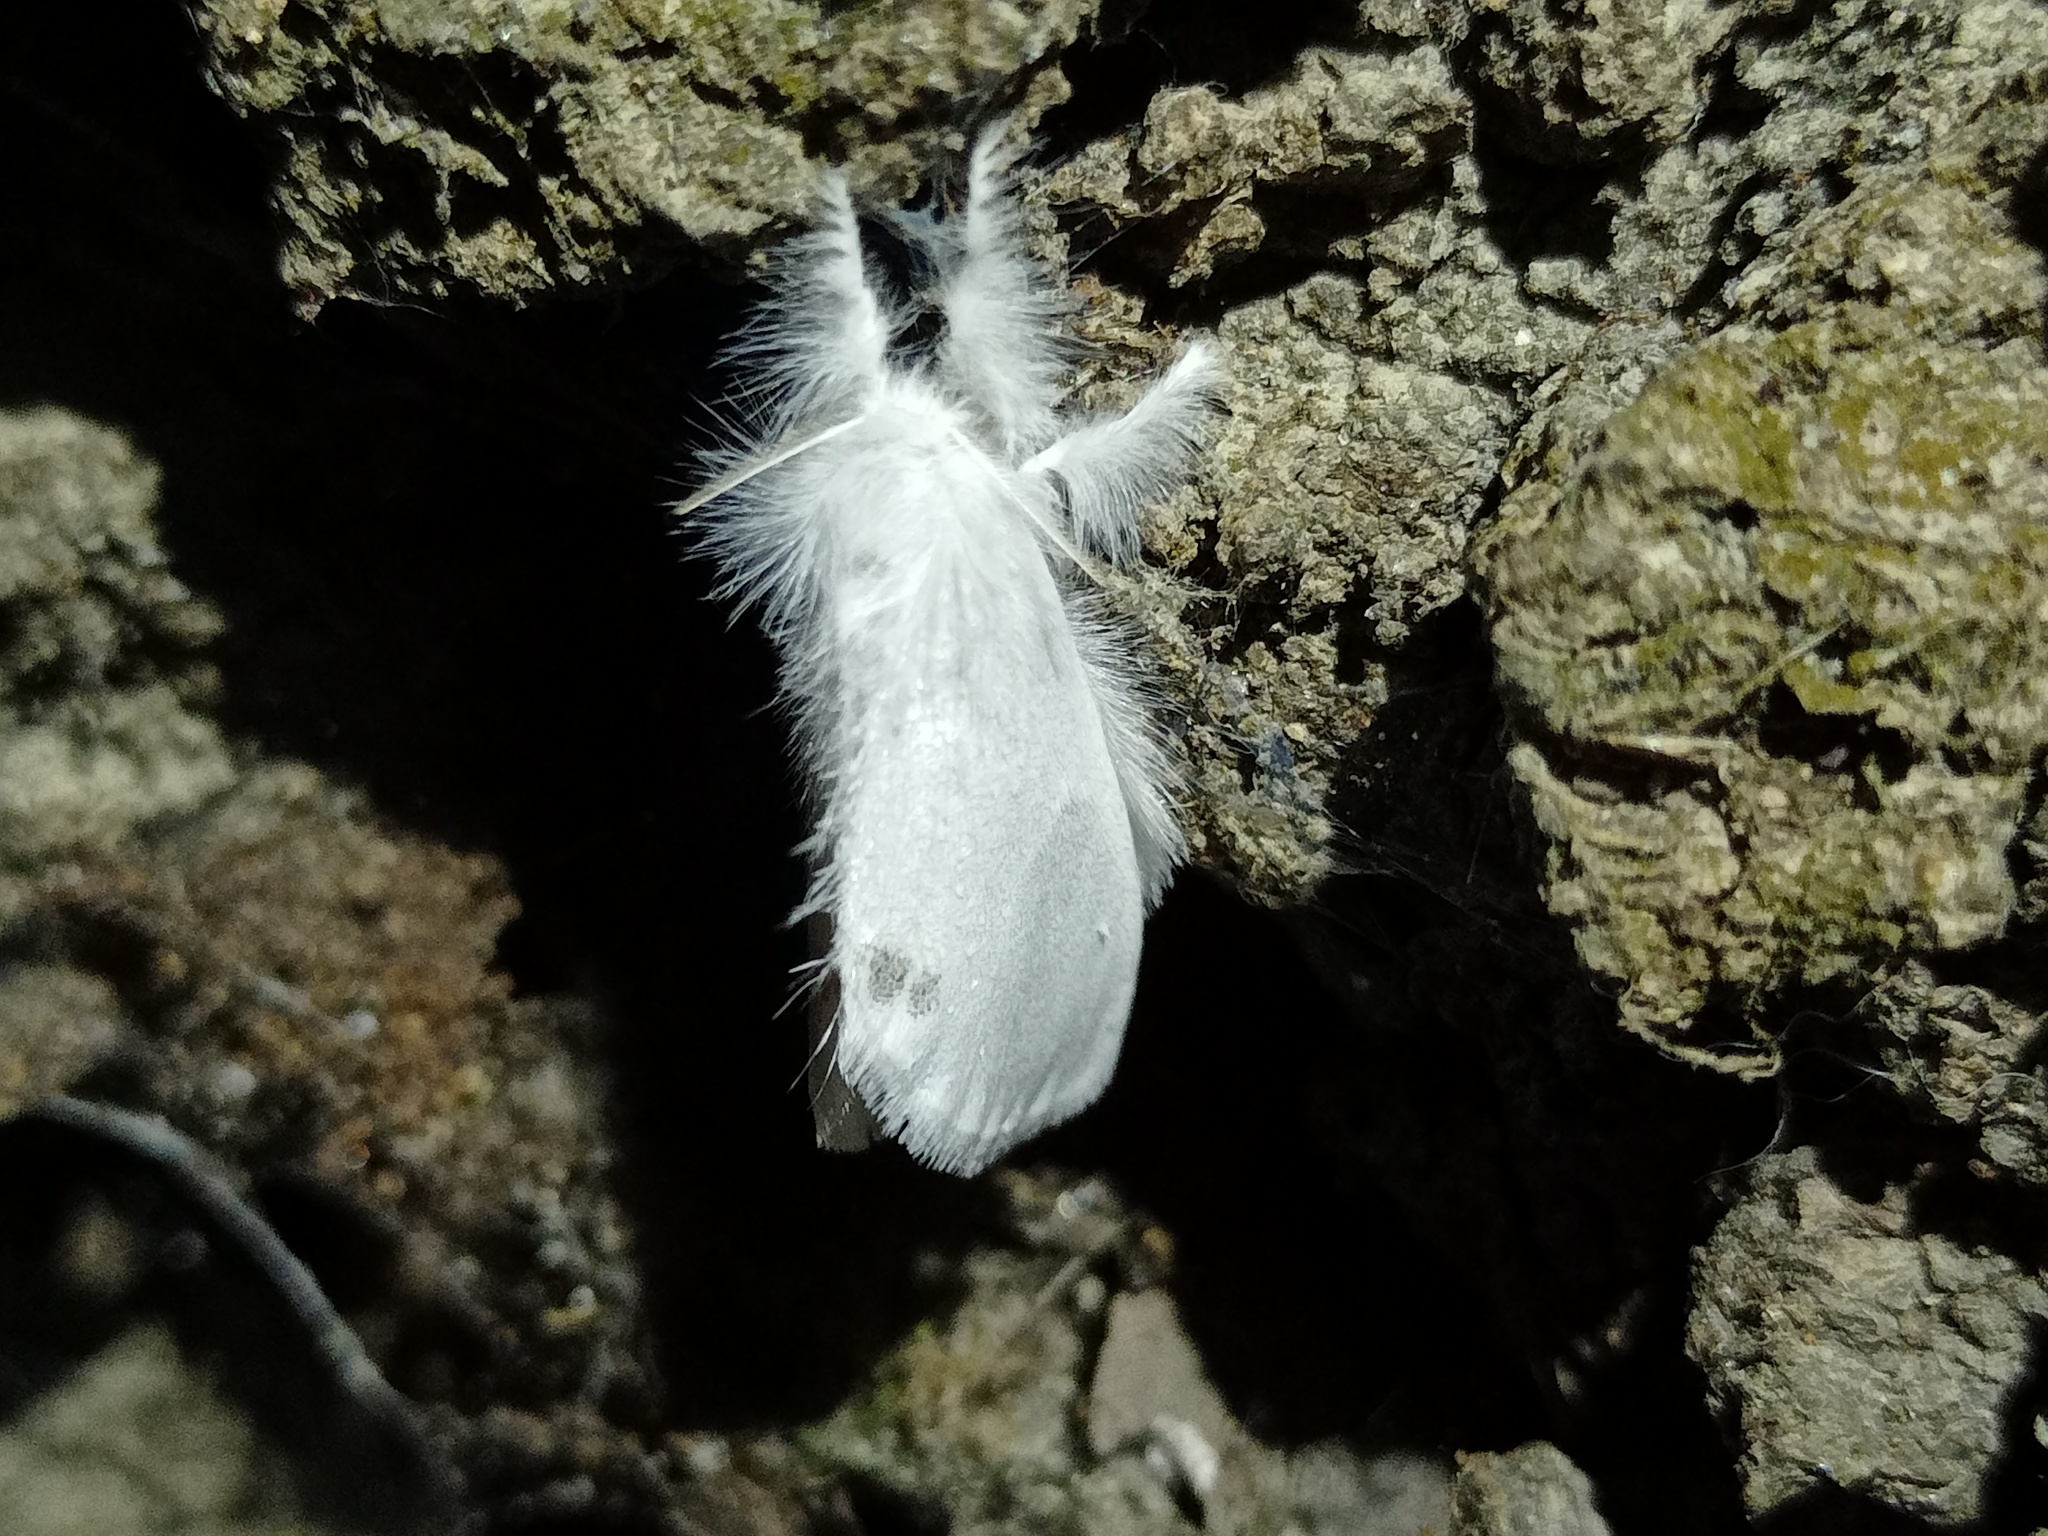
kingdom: Animalia
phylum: Arthropoda
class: Insecta
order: Lepidoptera
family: Erebidae
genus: Sphrageidus
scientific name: Sphrageidus similis
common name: Yellow-tail
